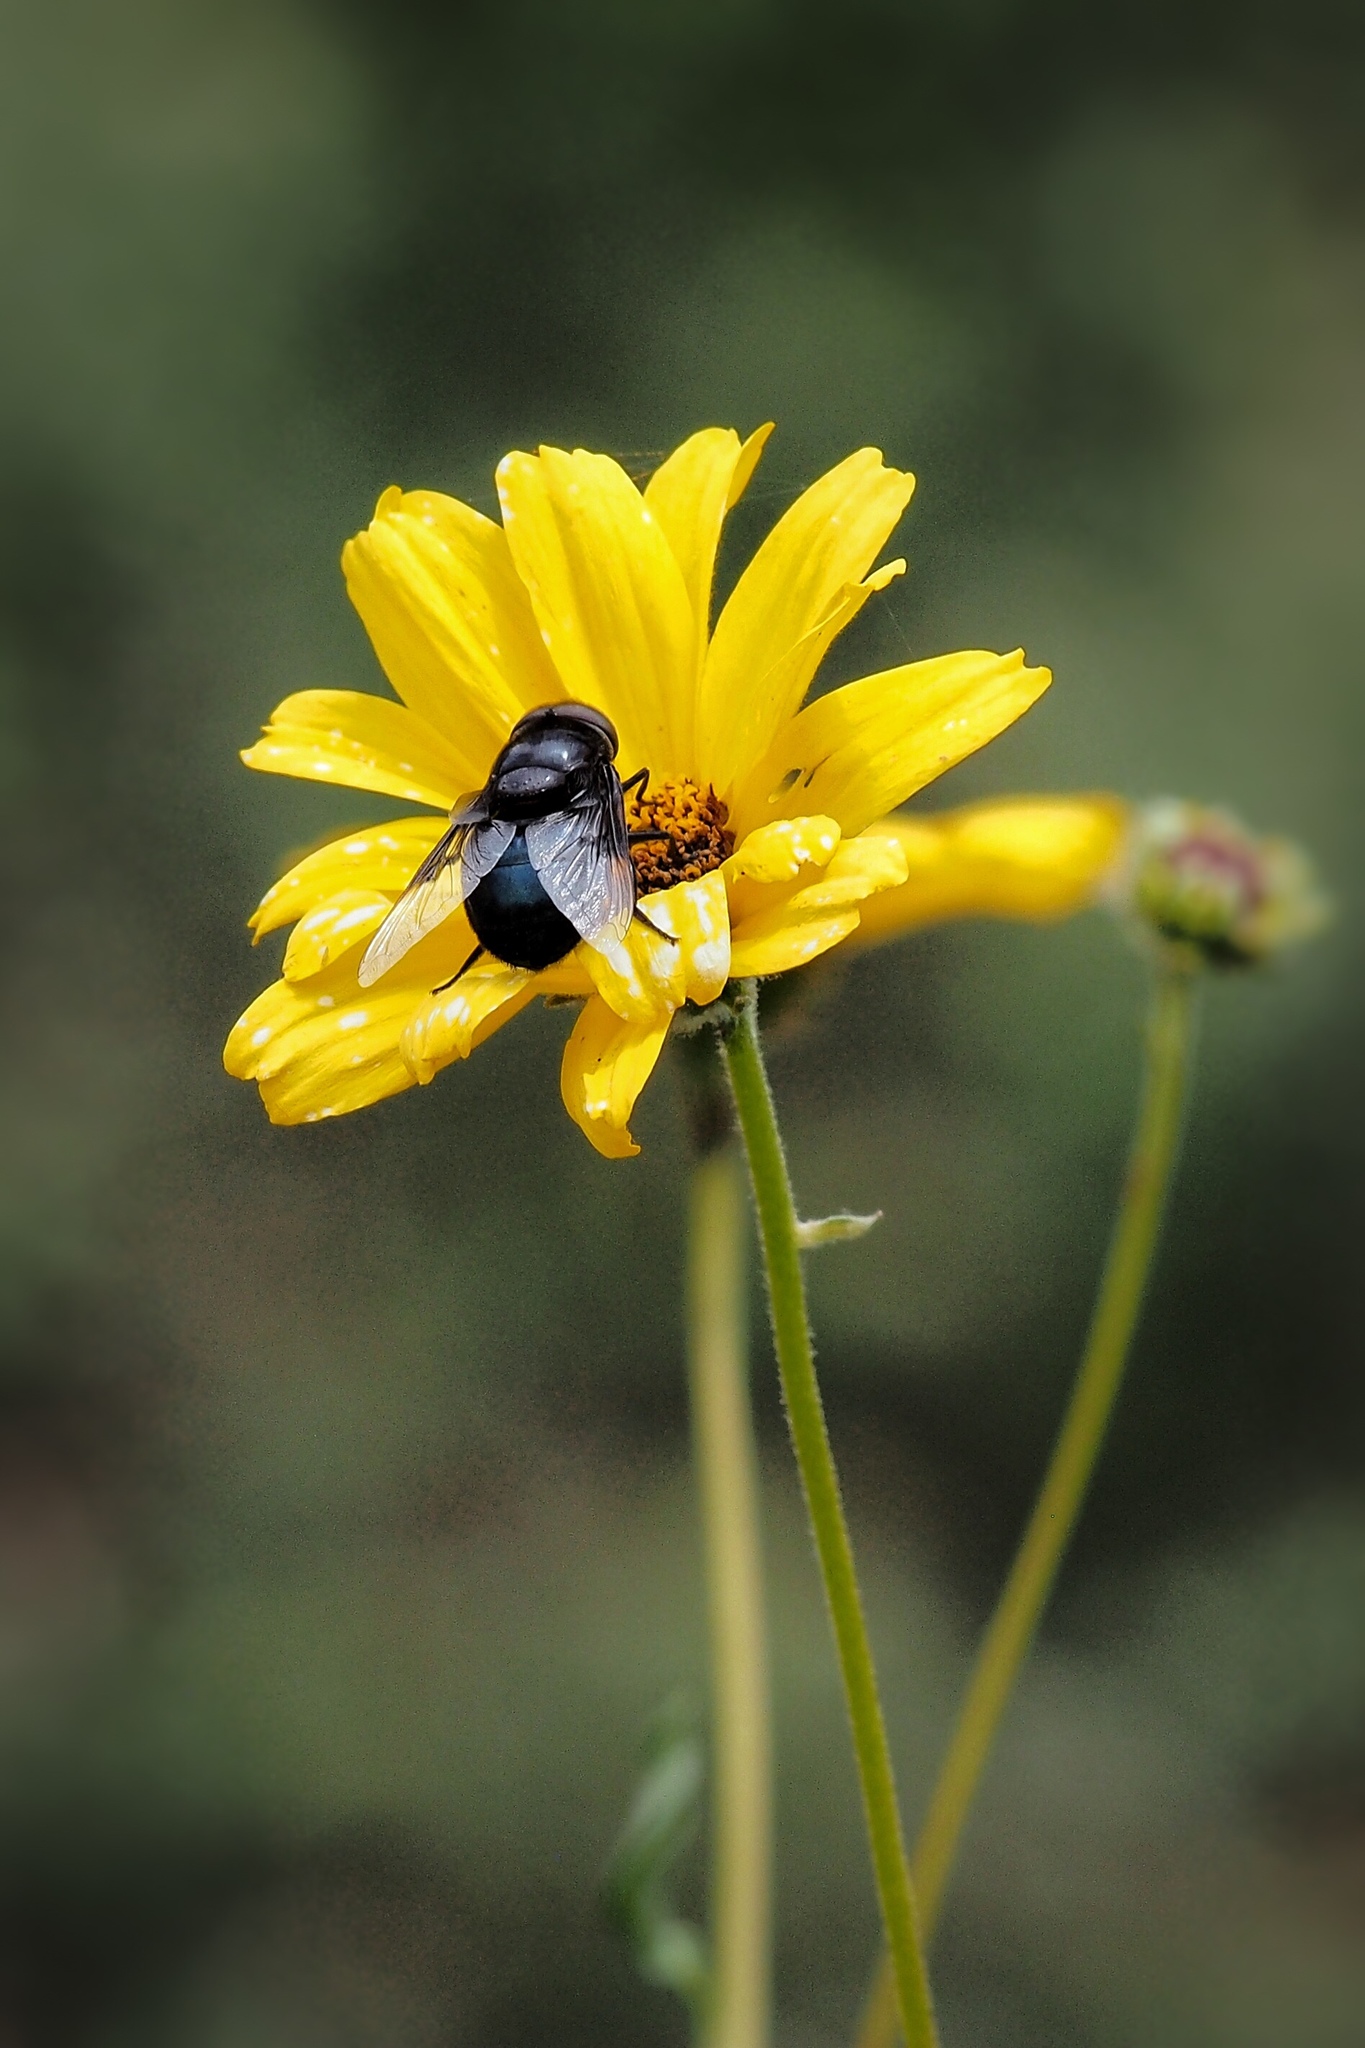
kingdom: Animalia
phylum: Arthropoda
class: Insecta
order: Diptera
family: Syrphidae
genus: Copestylum
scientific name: Copestylum mexicanum
